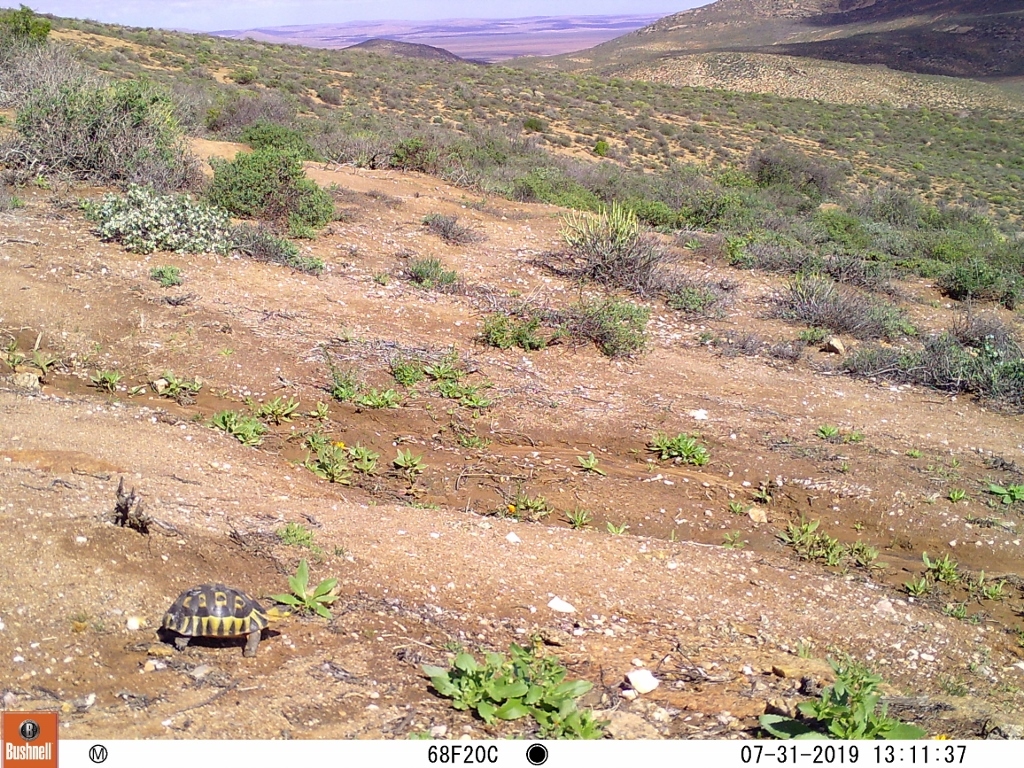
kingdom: Animalia
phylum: Chordata
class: Testudines
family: Testudinidae
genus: Chersina
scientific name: Chersina angulata
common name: South african bowsprit tortoise
